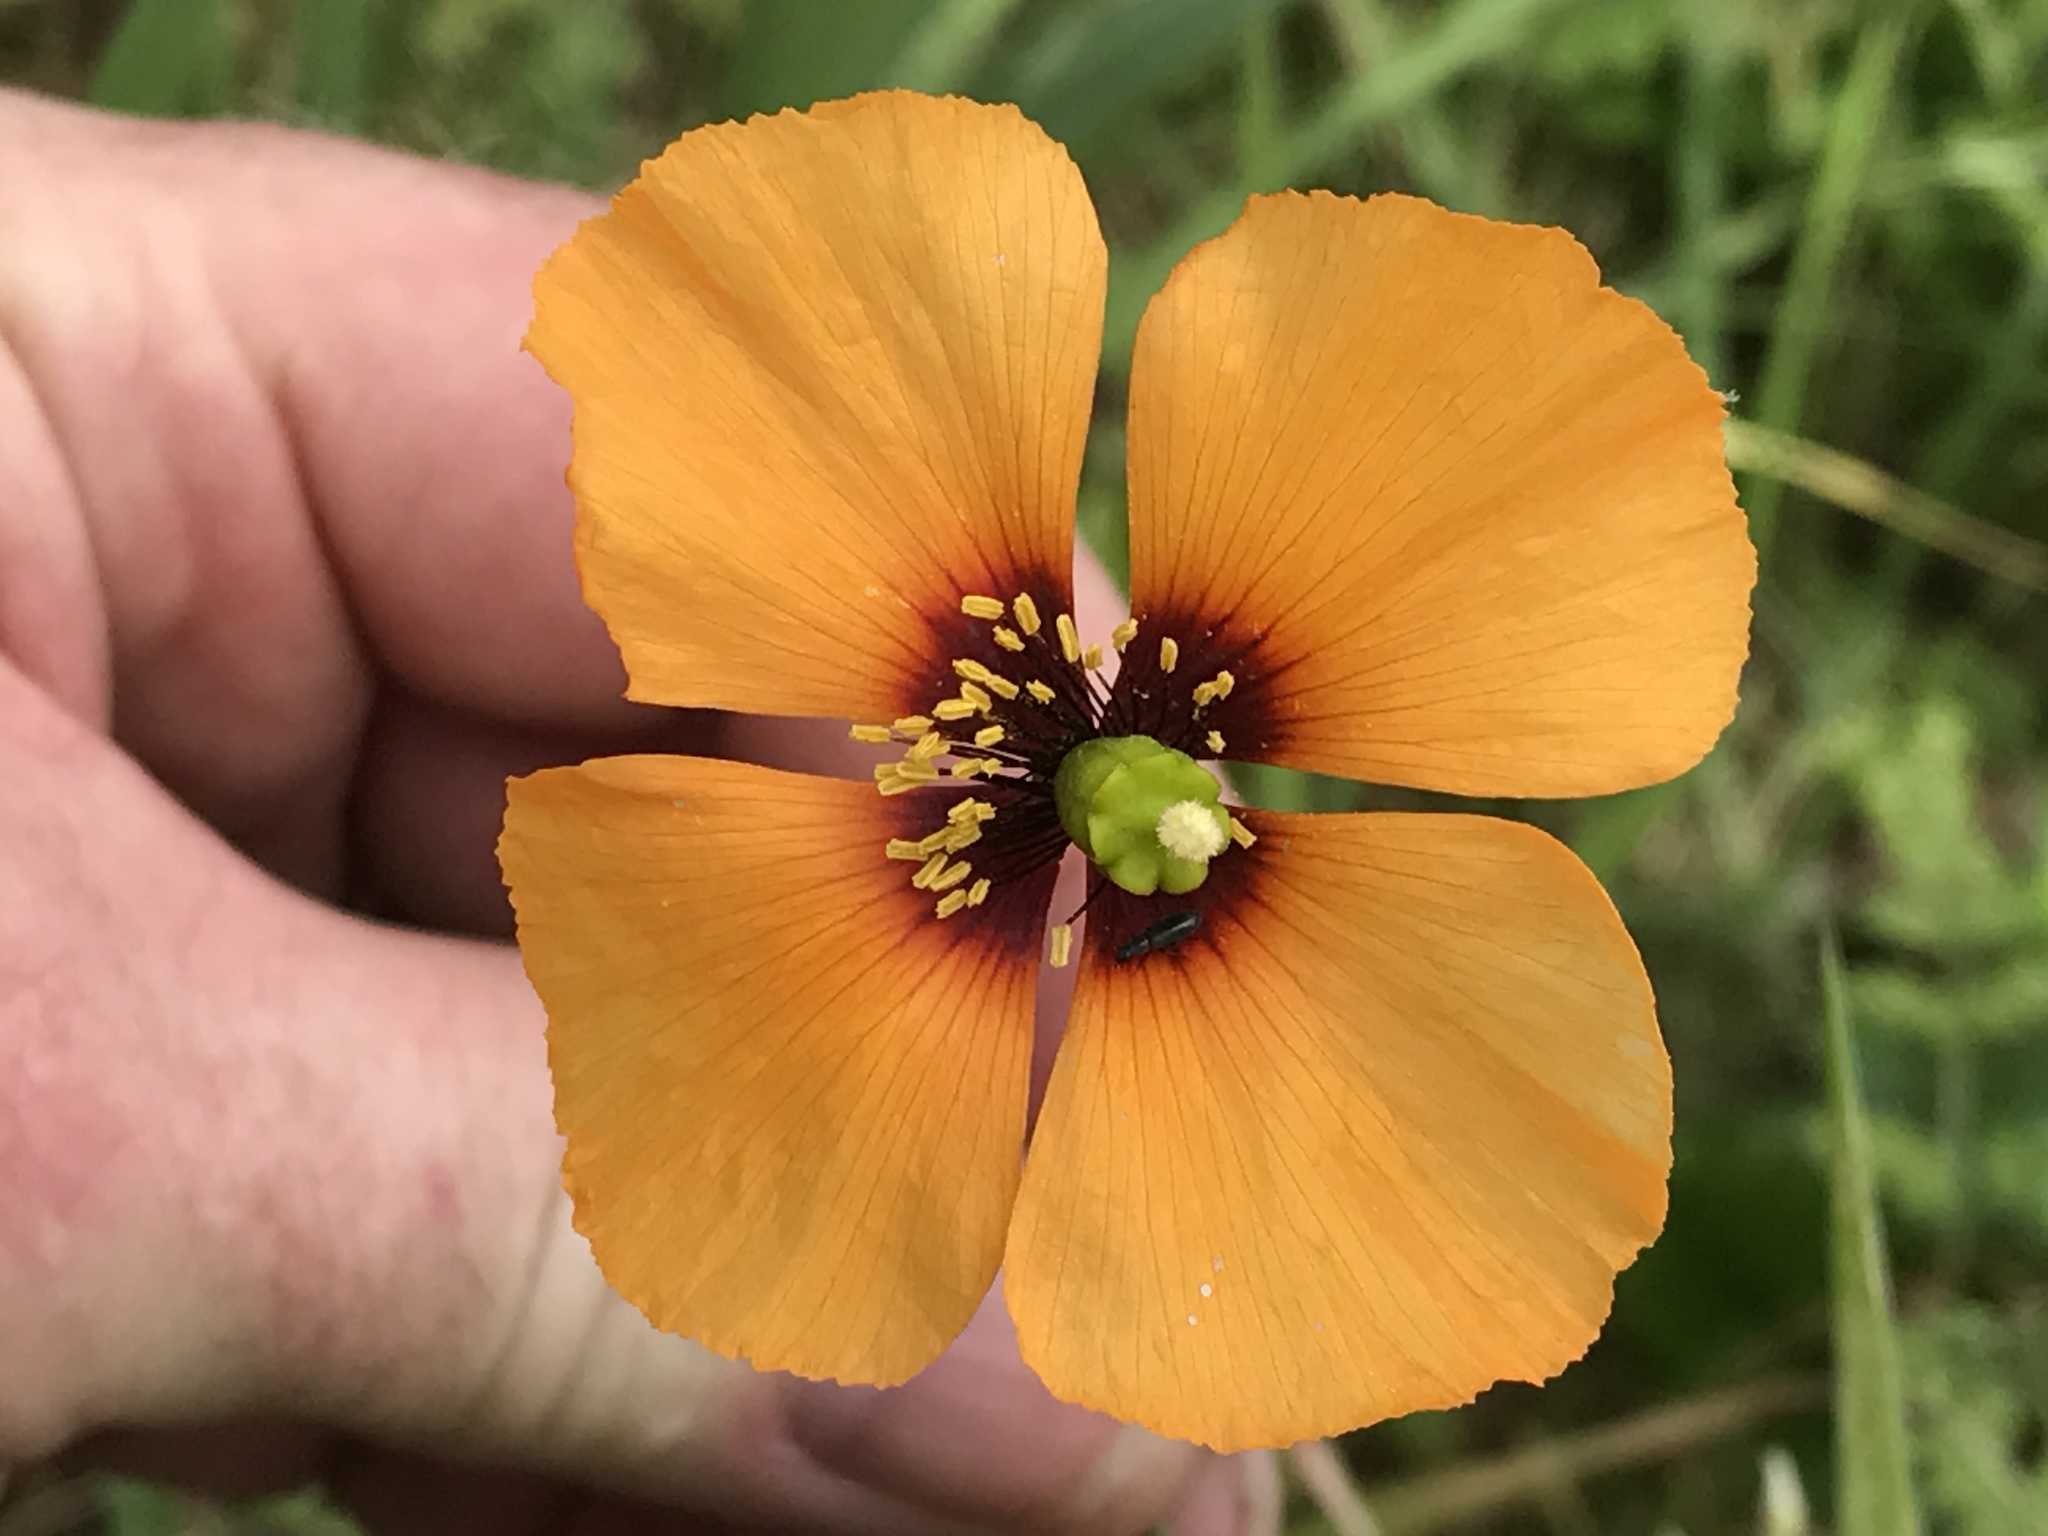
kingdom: Plantae
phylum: Tracheophyta
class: Magnoliopsida
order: Ranunculales
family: Papaveraceae
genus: Stylomecon
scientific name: Stylomecon heterophylla
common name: Flaming-poppy
